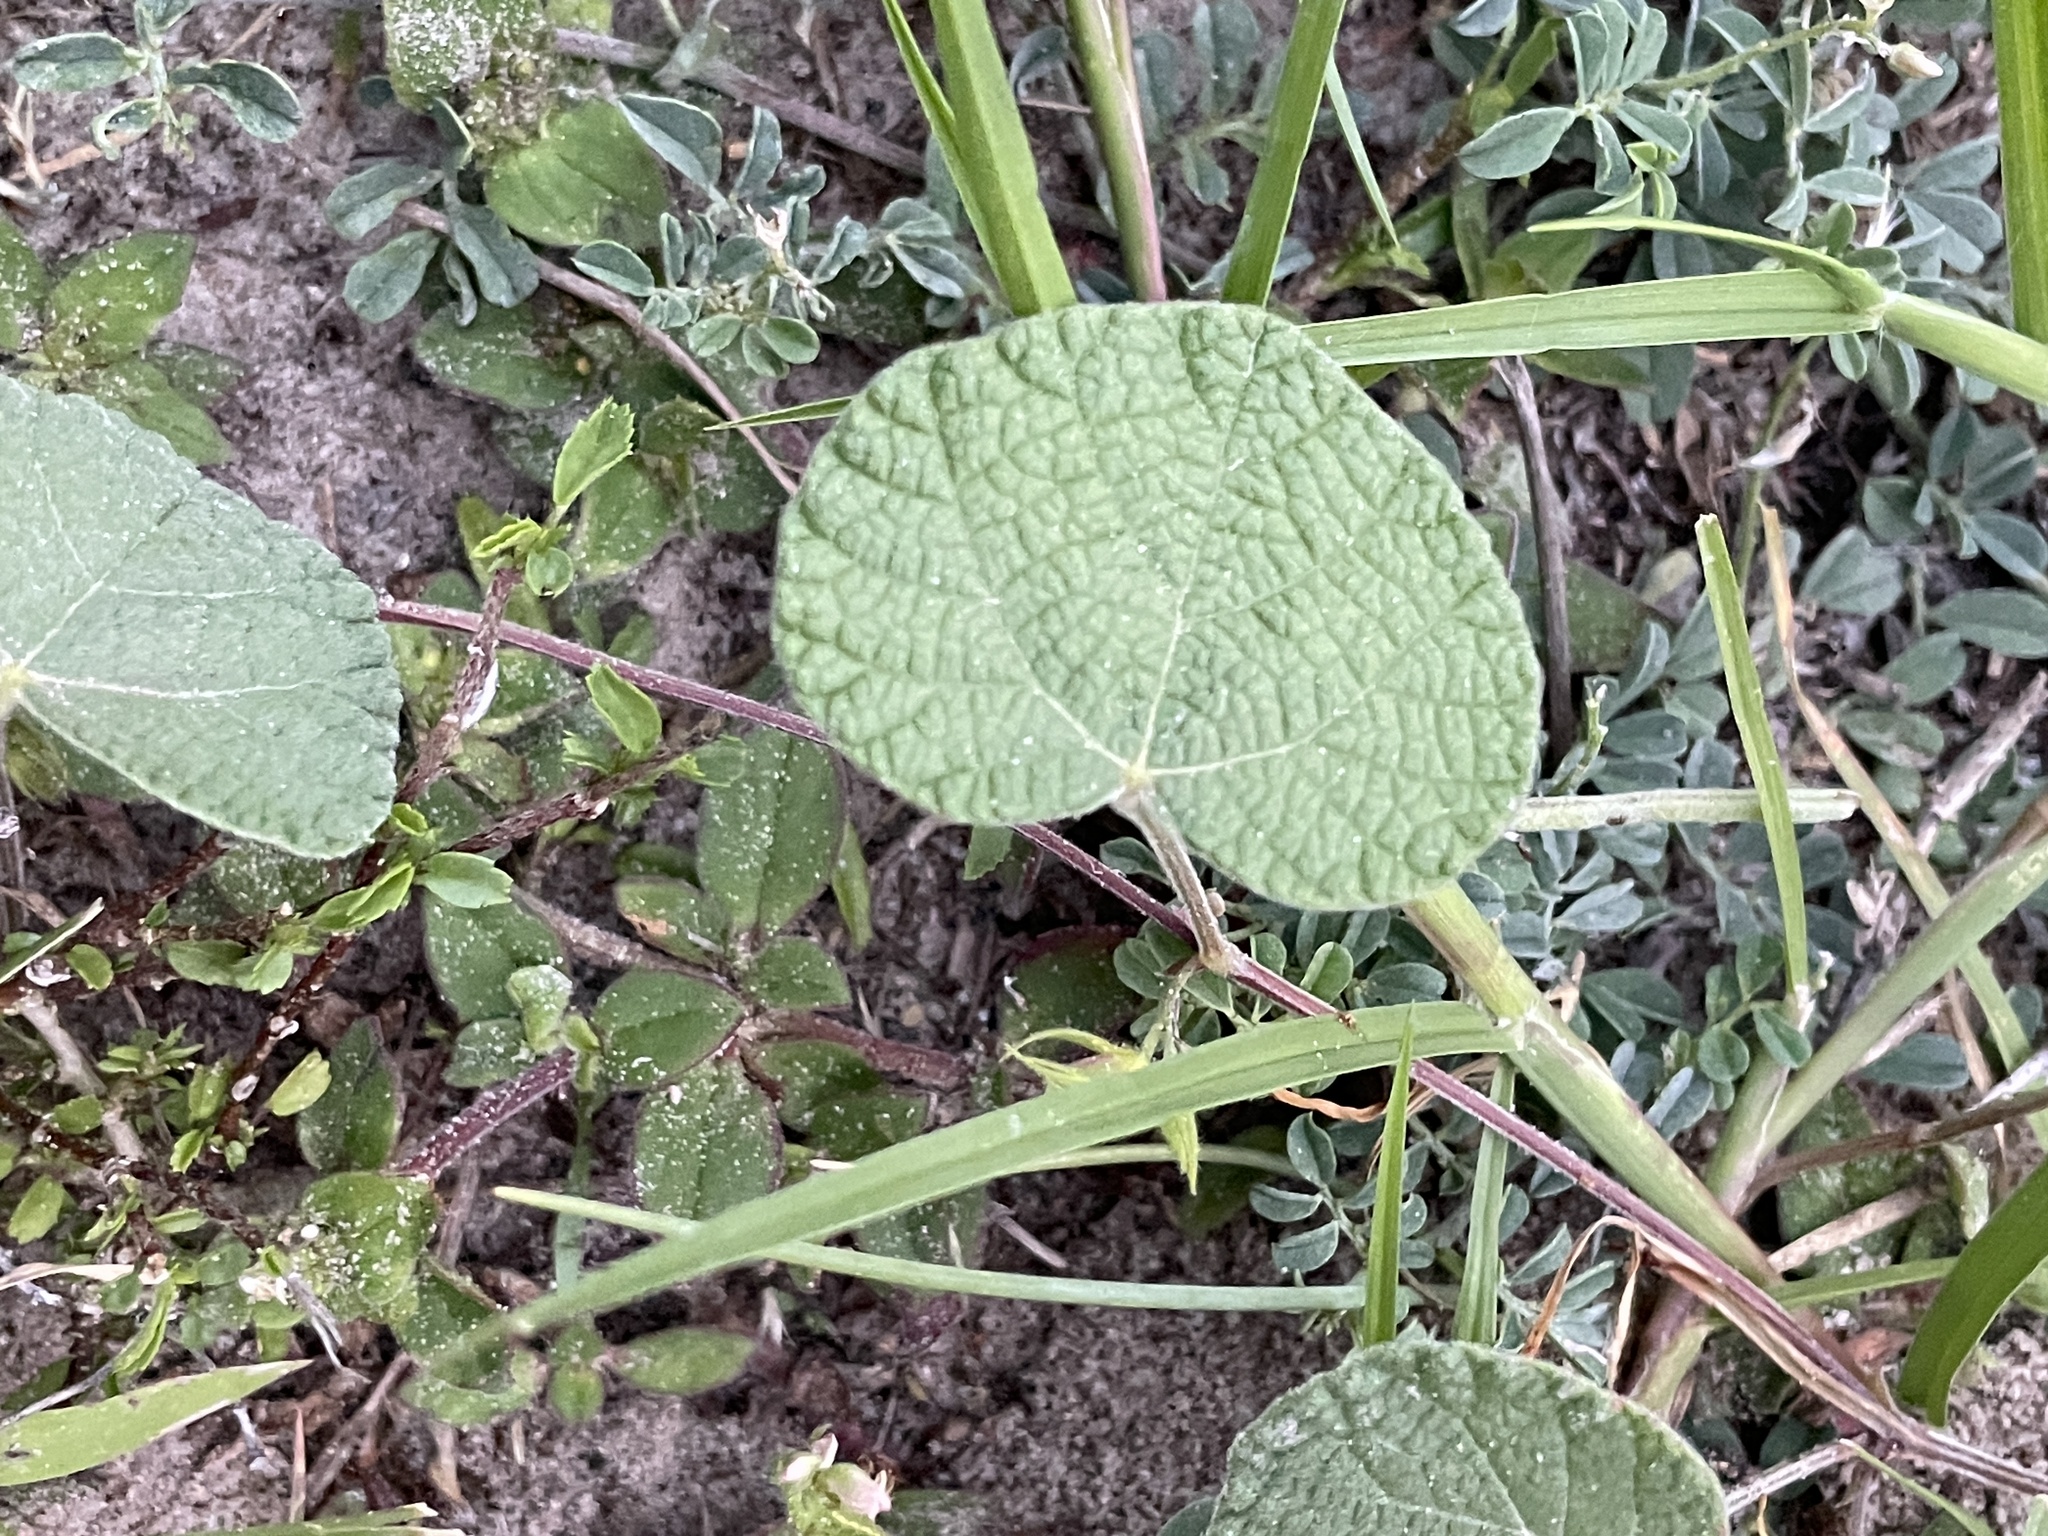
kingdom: Plantae
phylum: Tracheophyta
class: Magnoliopsida
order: Fabales
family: Fabaceae
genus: Rhynchosia
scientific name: Rhynchosia americana
